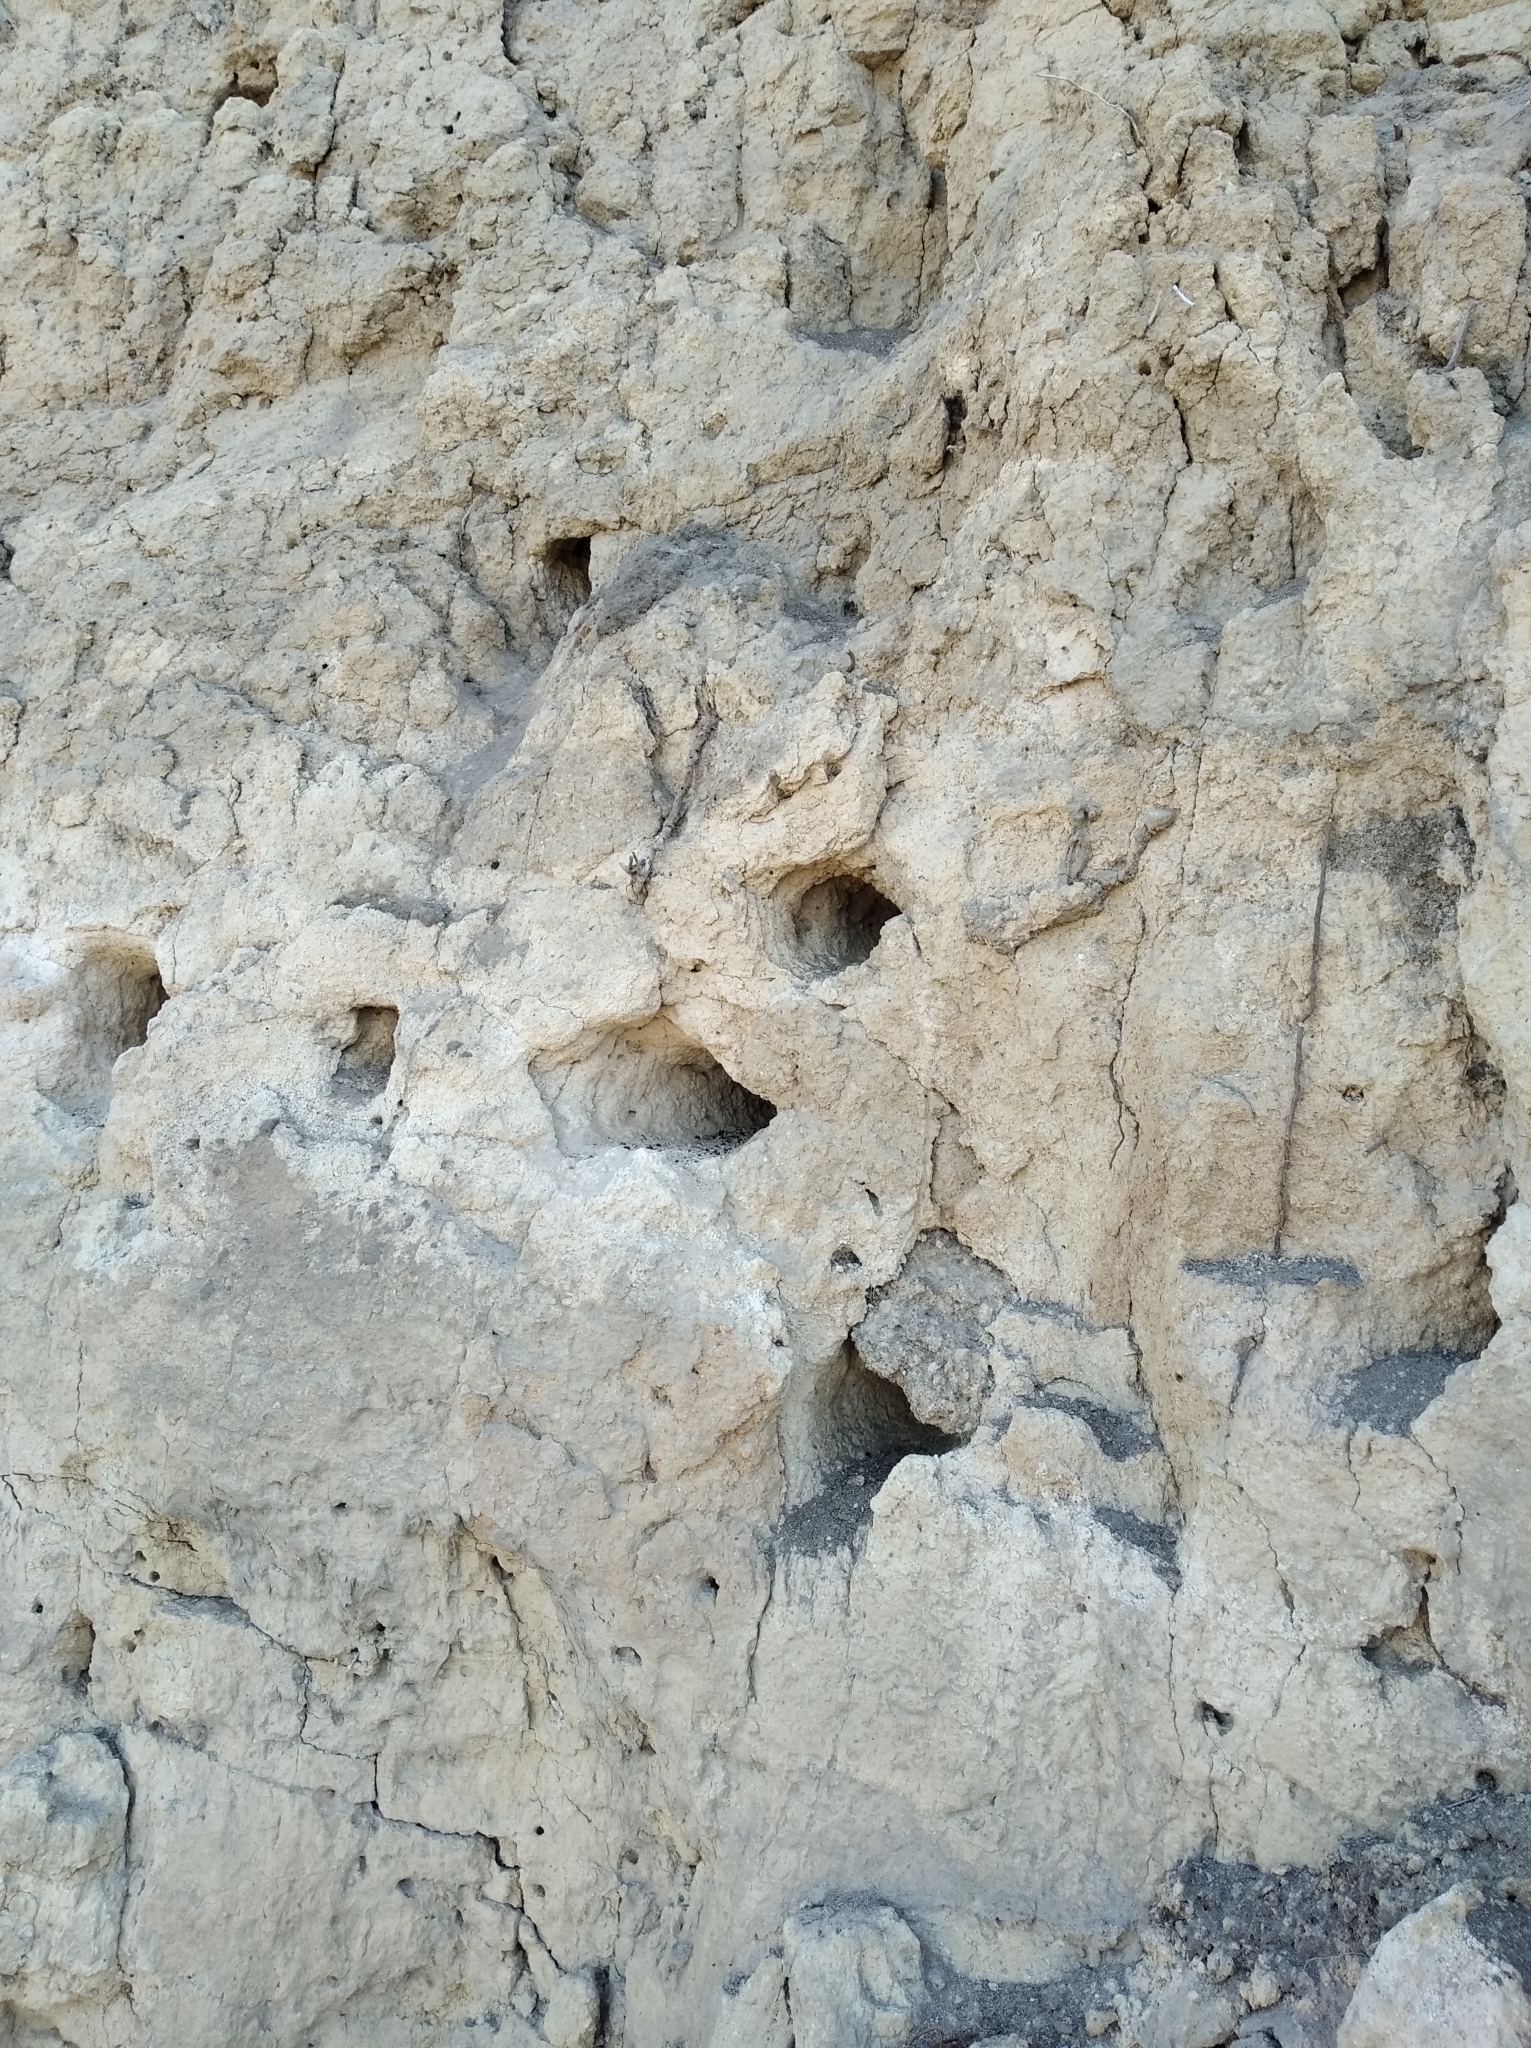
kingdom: Animalia
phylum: Chordata
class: Aves
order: Coraciiformes
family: Meropidae
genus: Merops
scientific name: Merops apiaster
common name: European bee-eater
